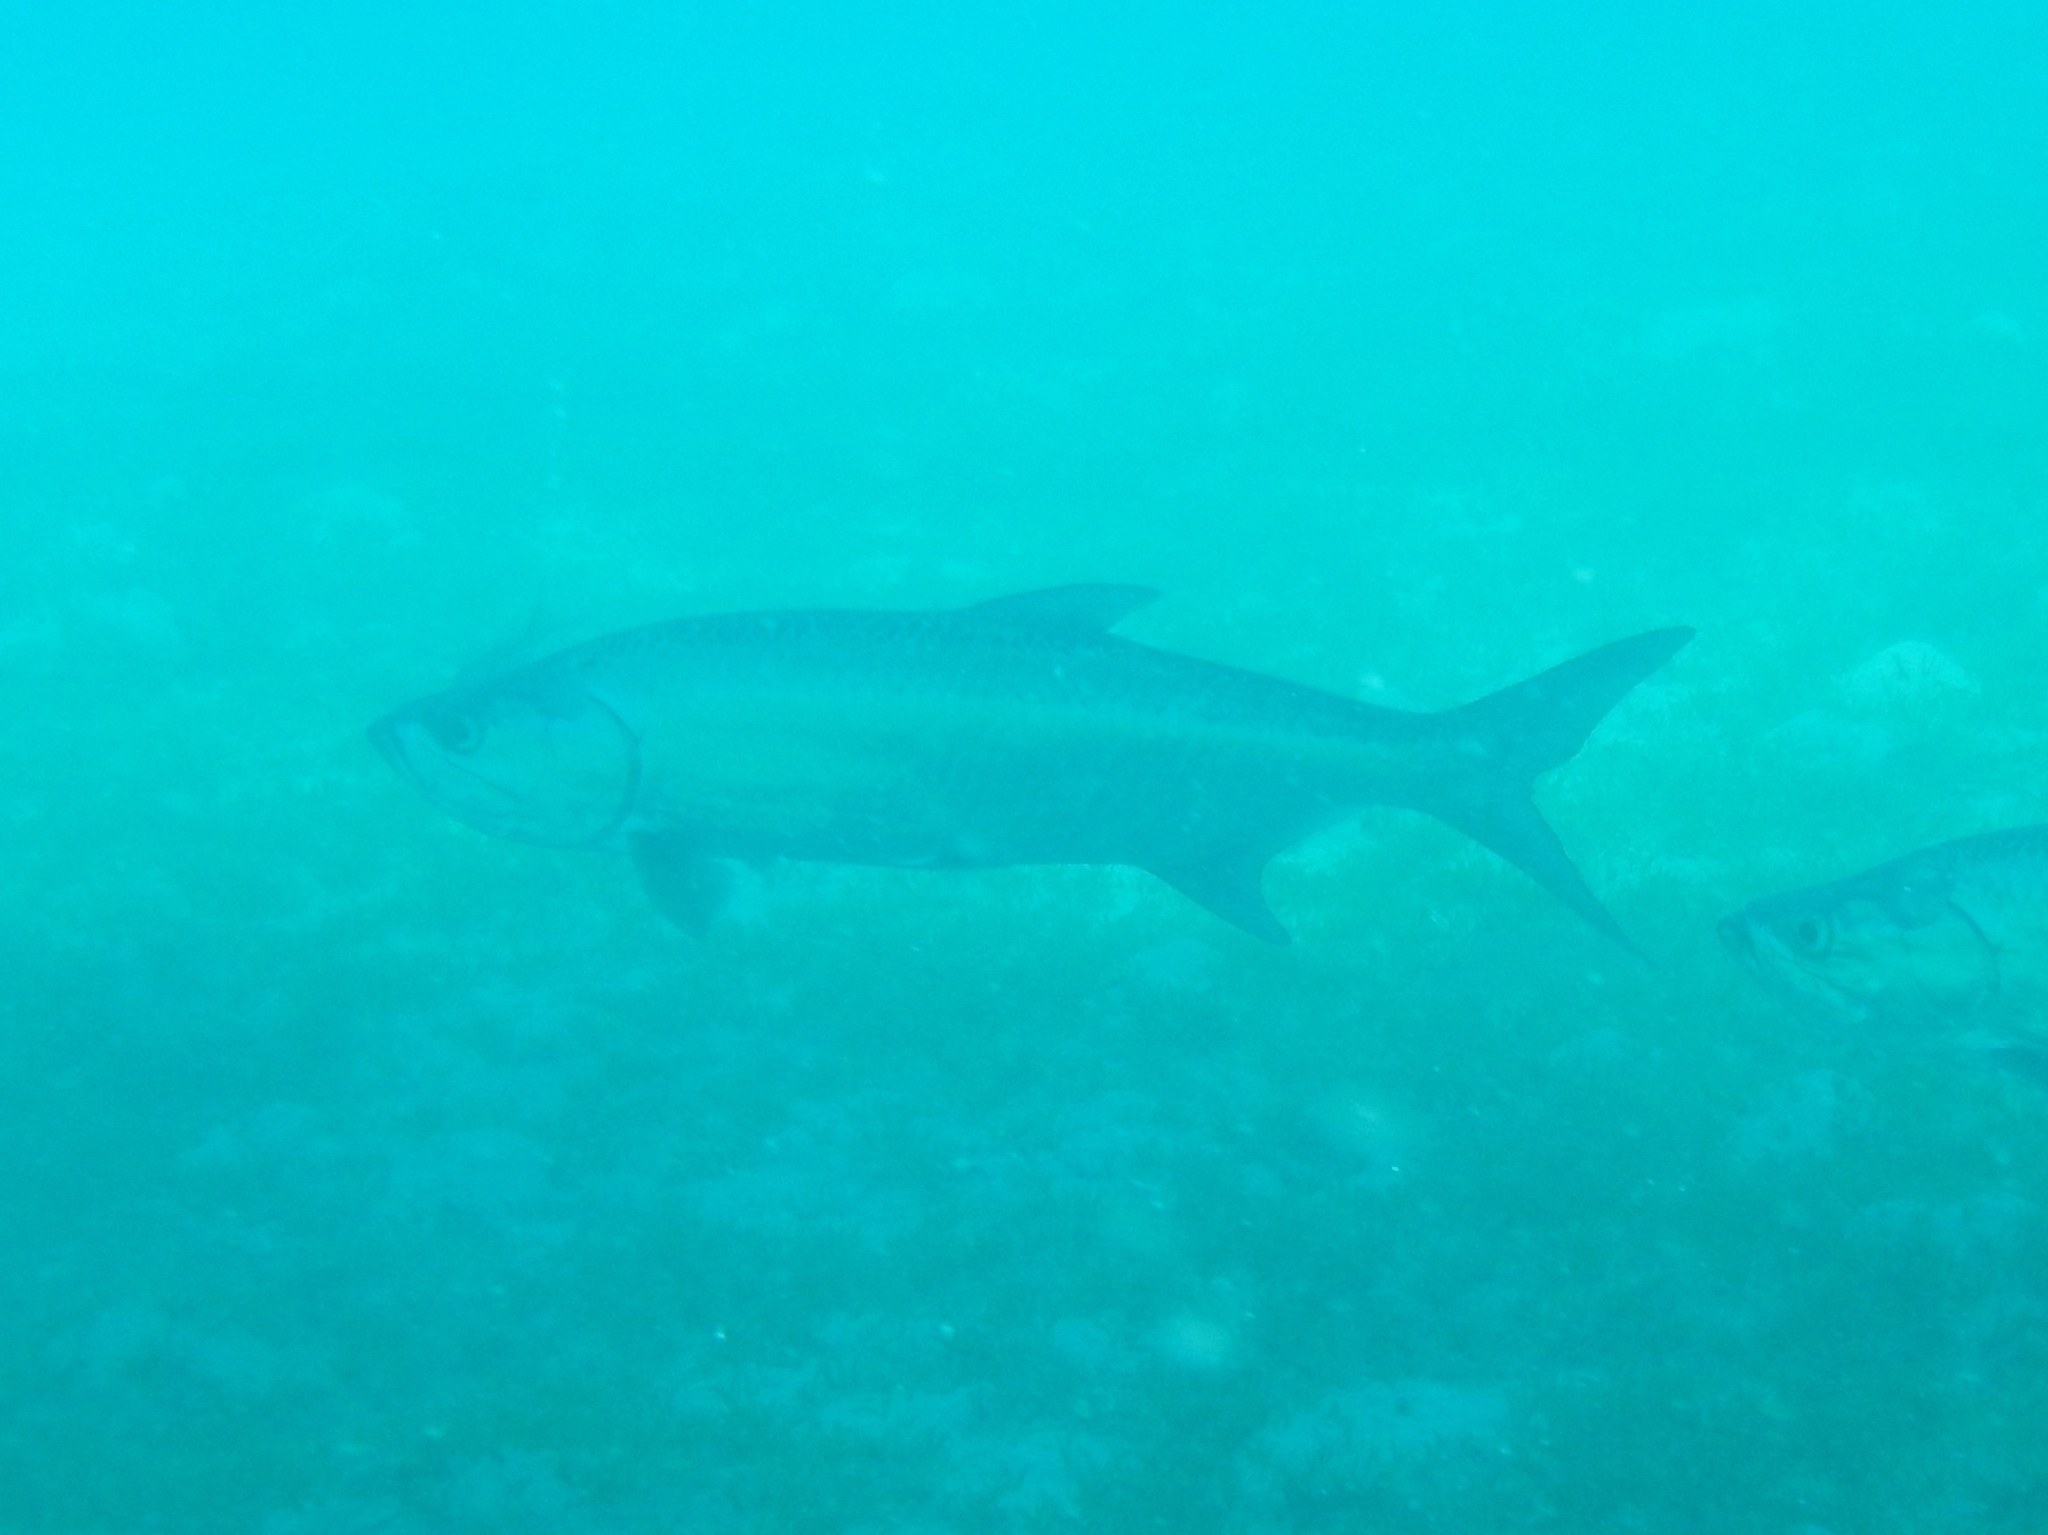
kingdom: Animalia
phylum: Chordata
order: Elopiformes
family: Megalopidae
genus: Megalops
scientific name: Megalops atlanticus
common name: Tarpon
